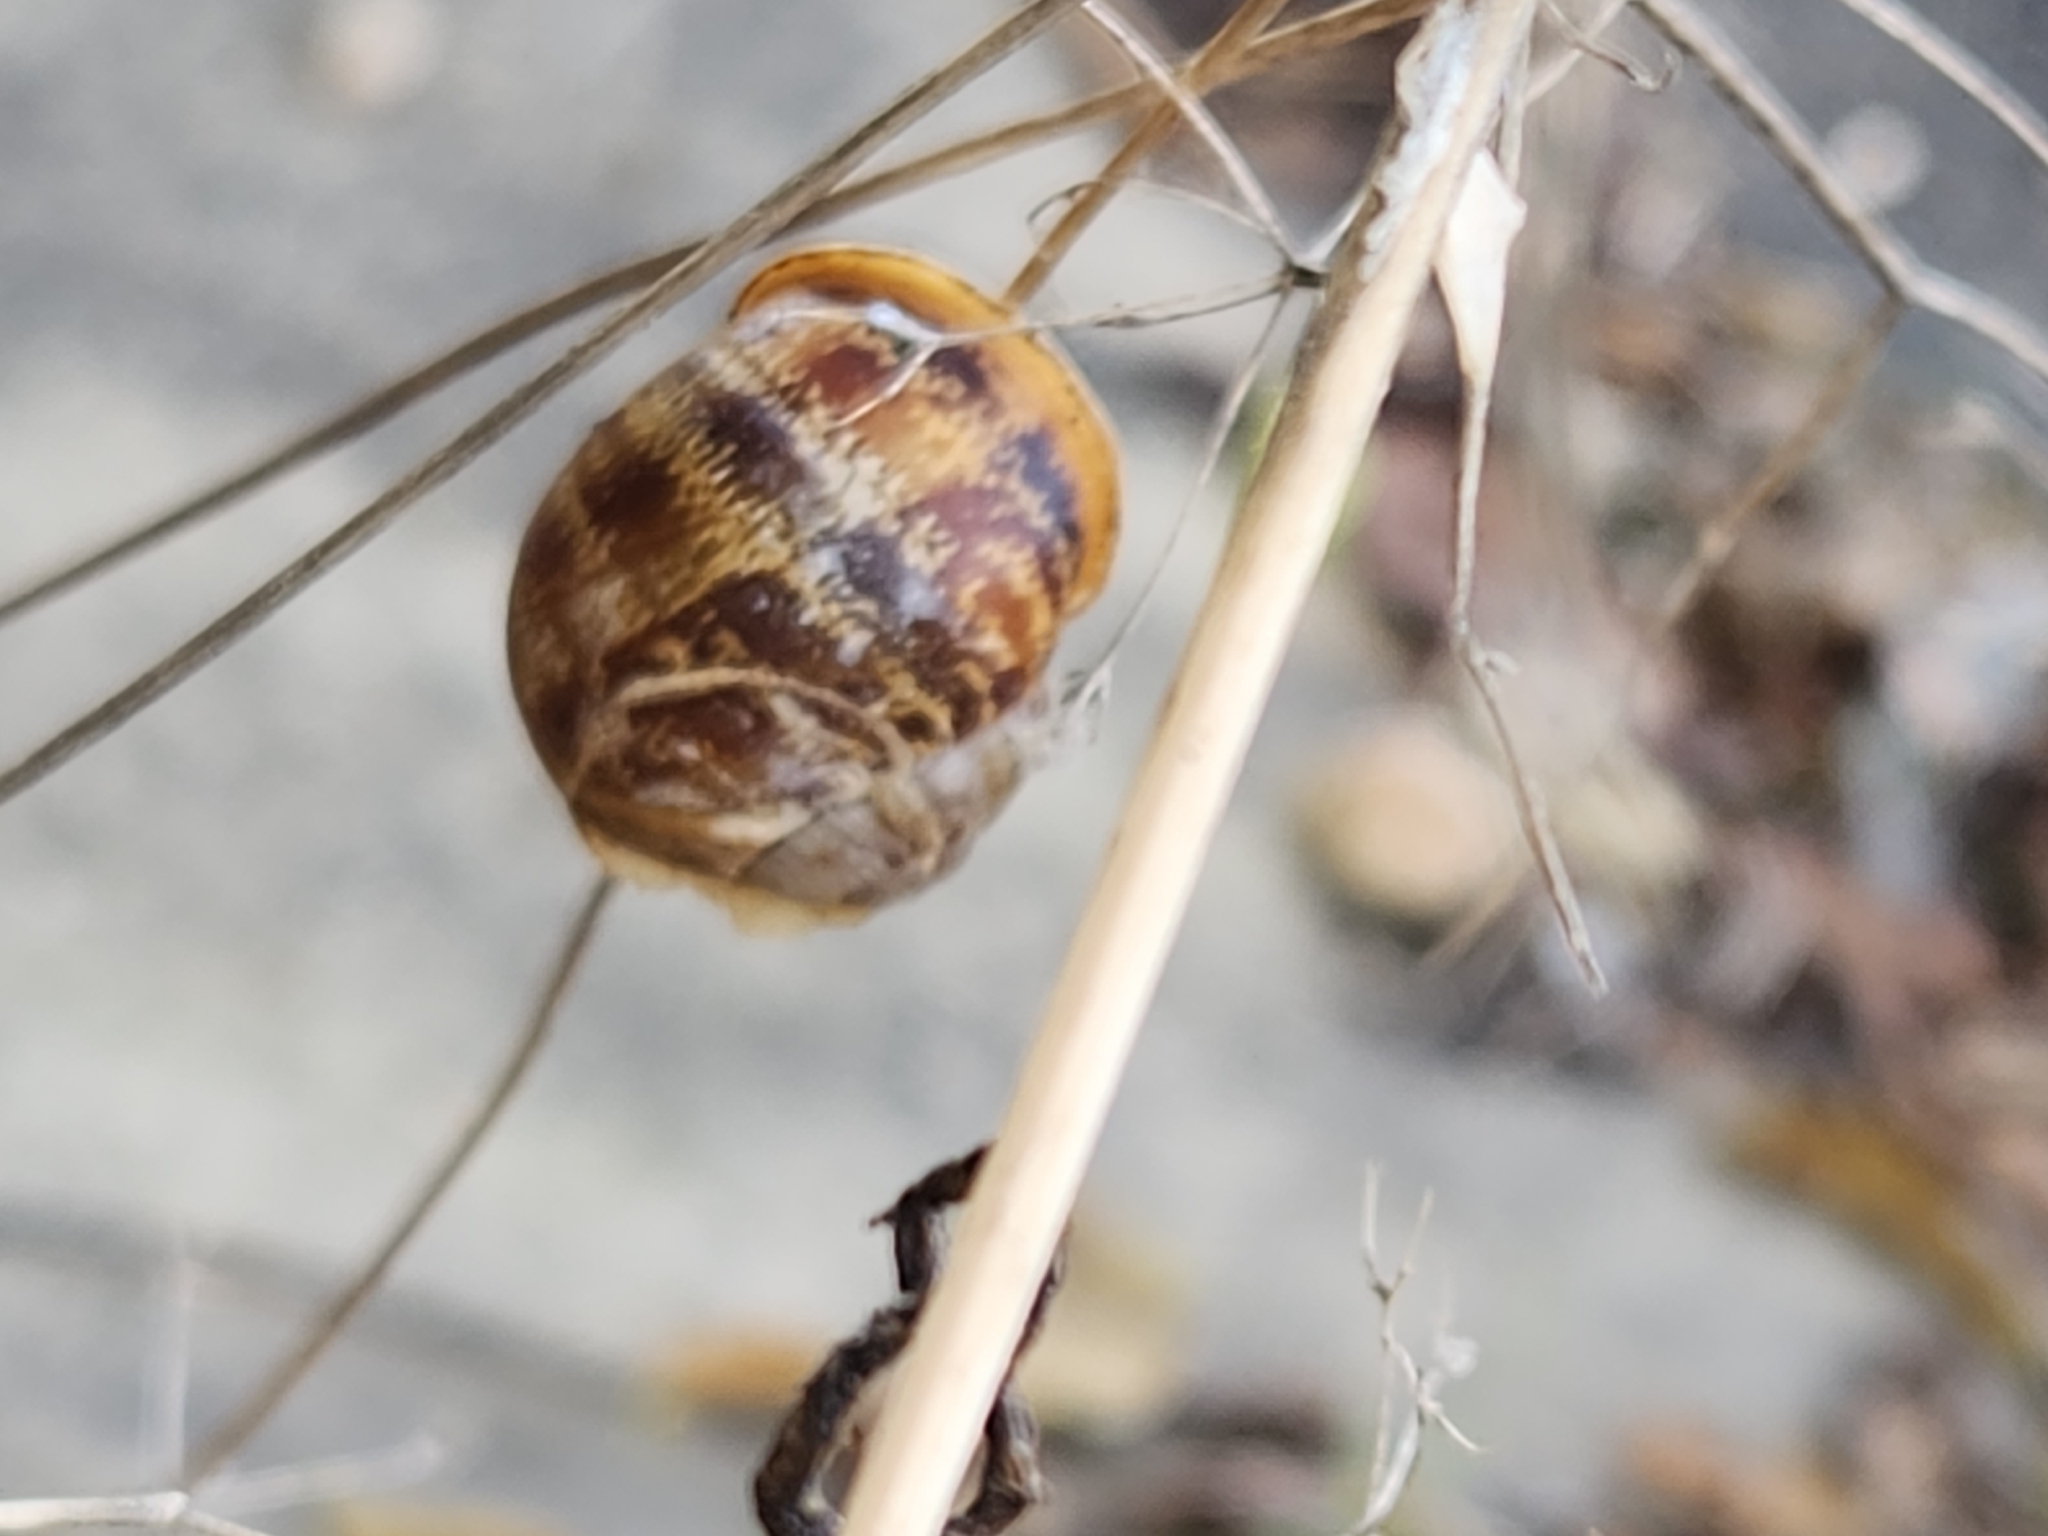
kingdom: Animalia
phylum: Mollusca
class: Gastropoda
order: Stylommatophora
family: Helicidae
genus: Cornu
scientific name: Cornu aspersum
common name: Brown garden snail
